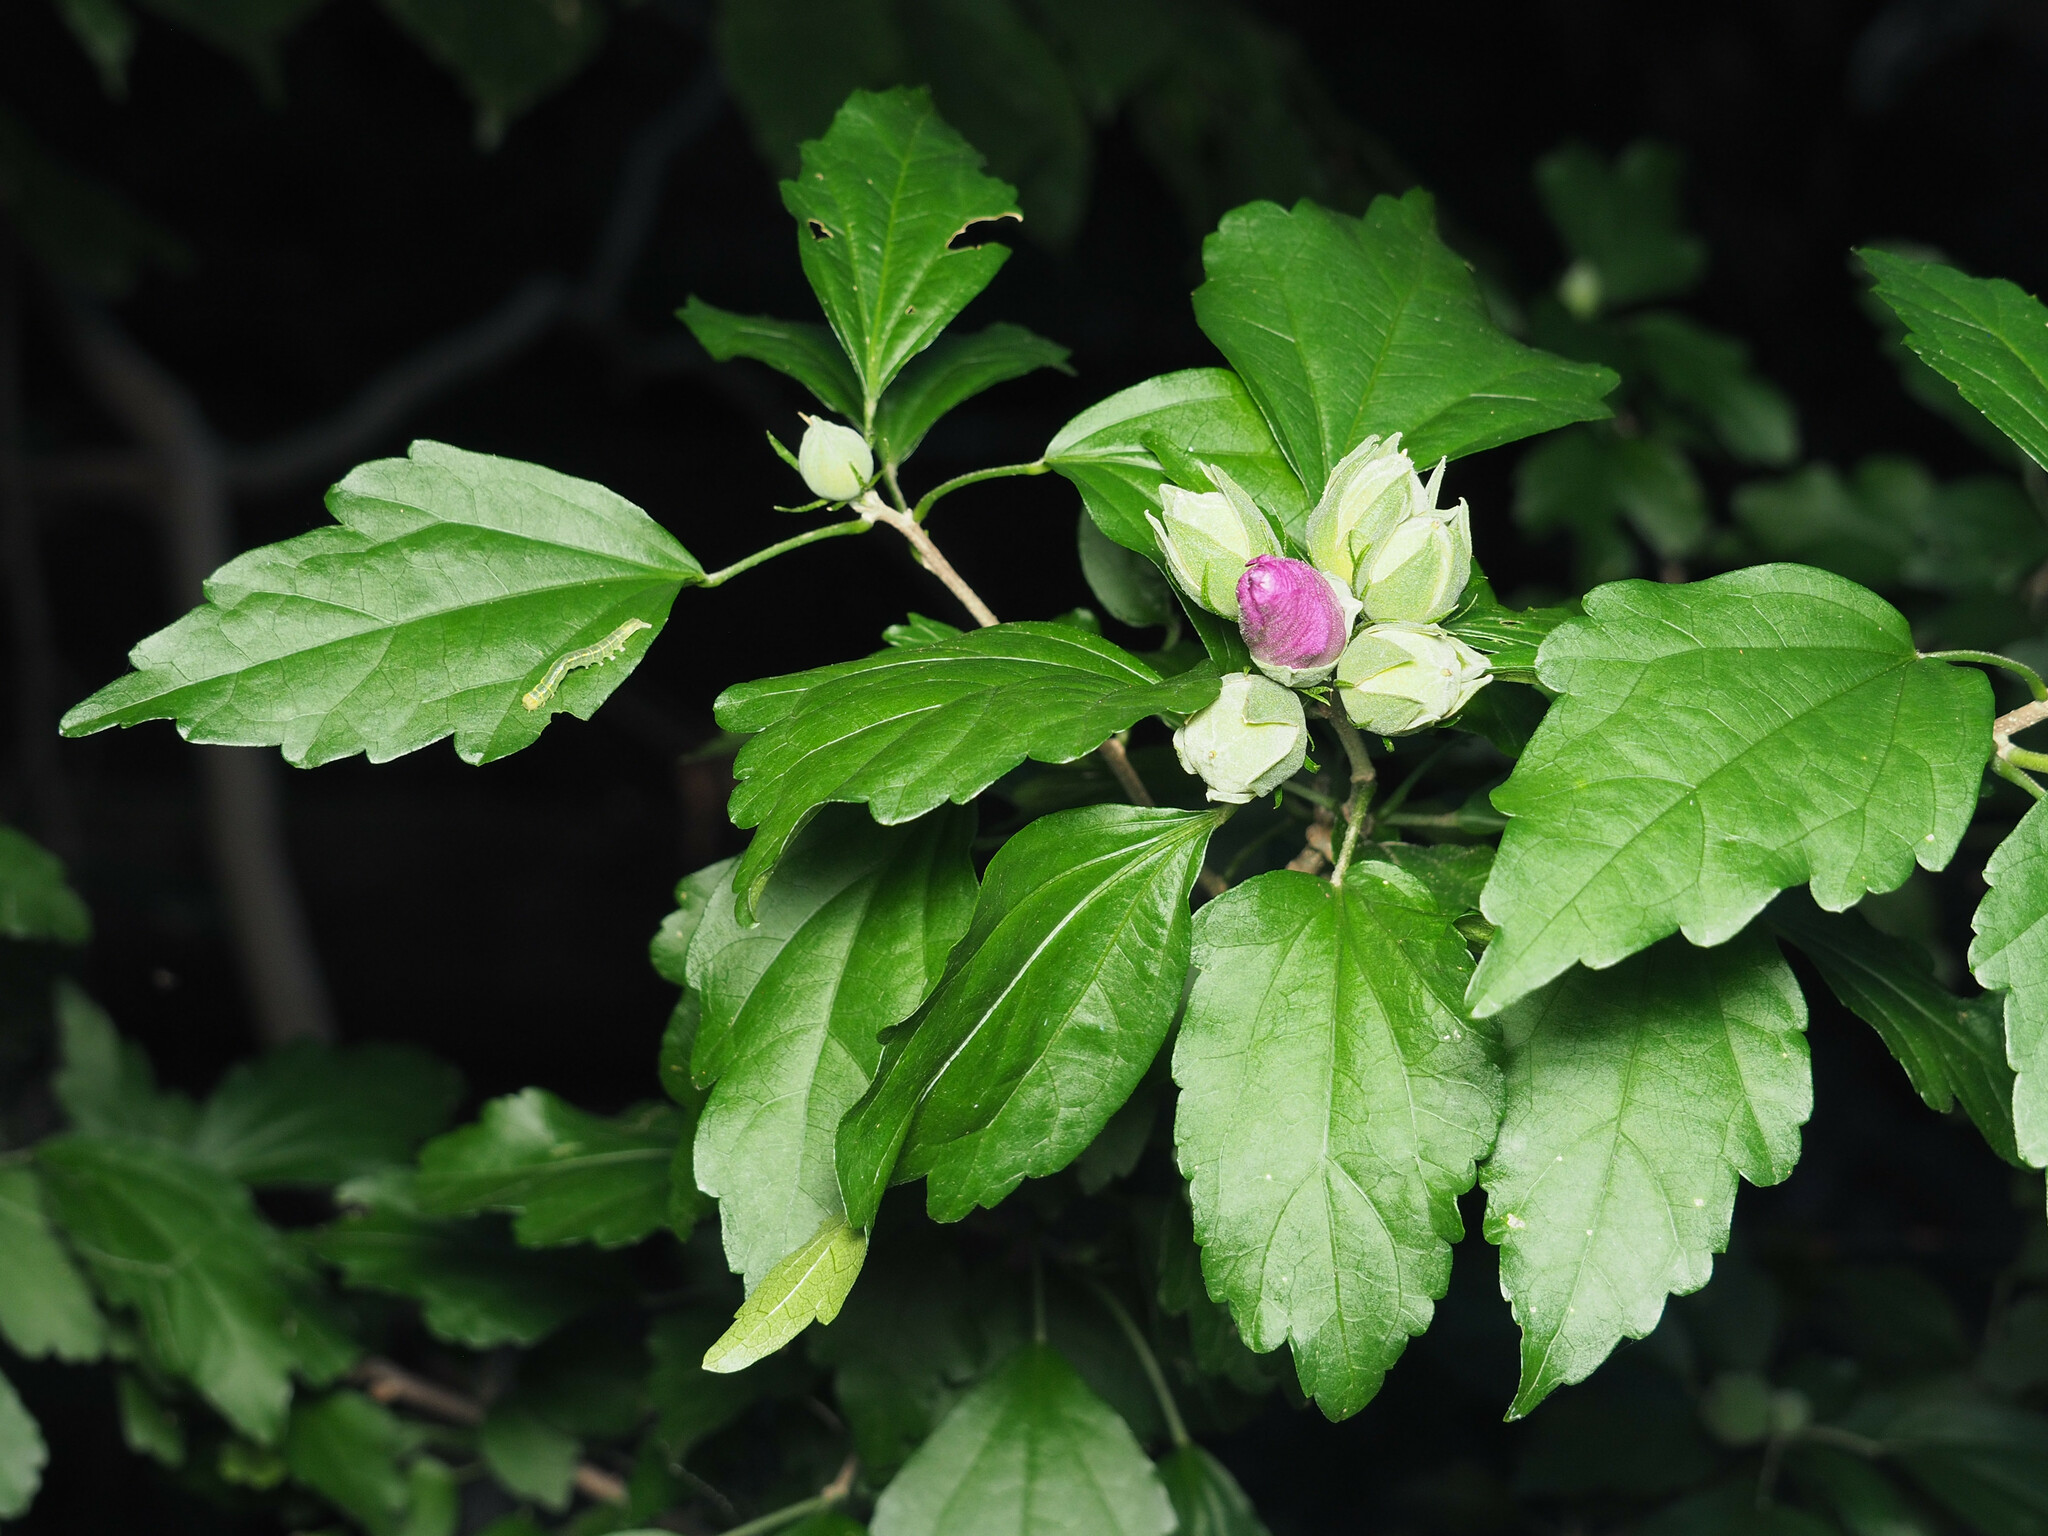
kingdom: Plantae
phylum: Tracheophyta
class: Magnoliopsida
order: Malvales
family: Malvaceae
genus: Hibiscus
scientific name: Hibiscus syriacus
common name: Syrian ketmia
